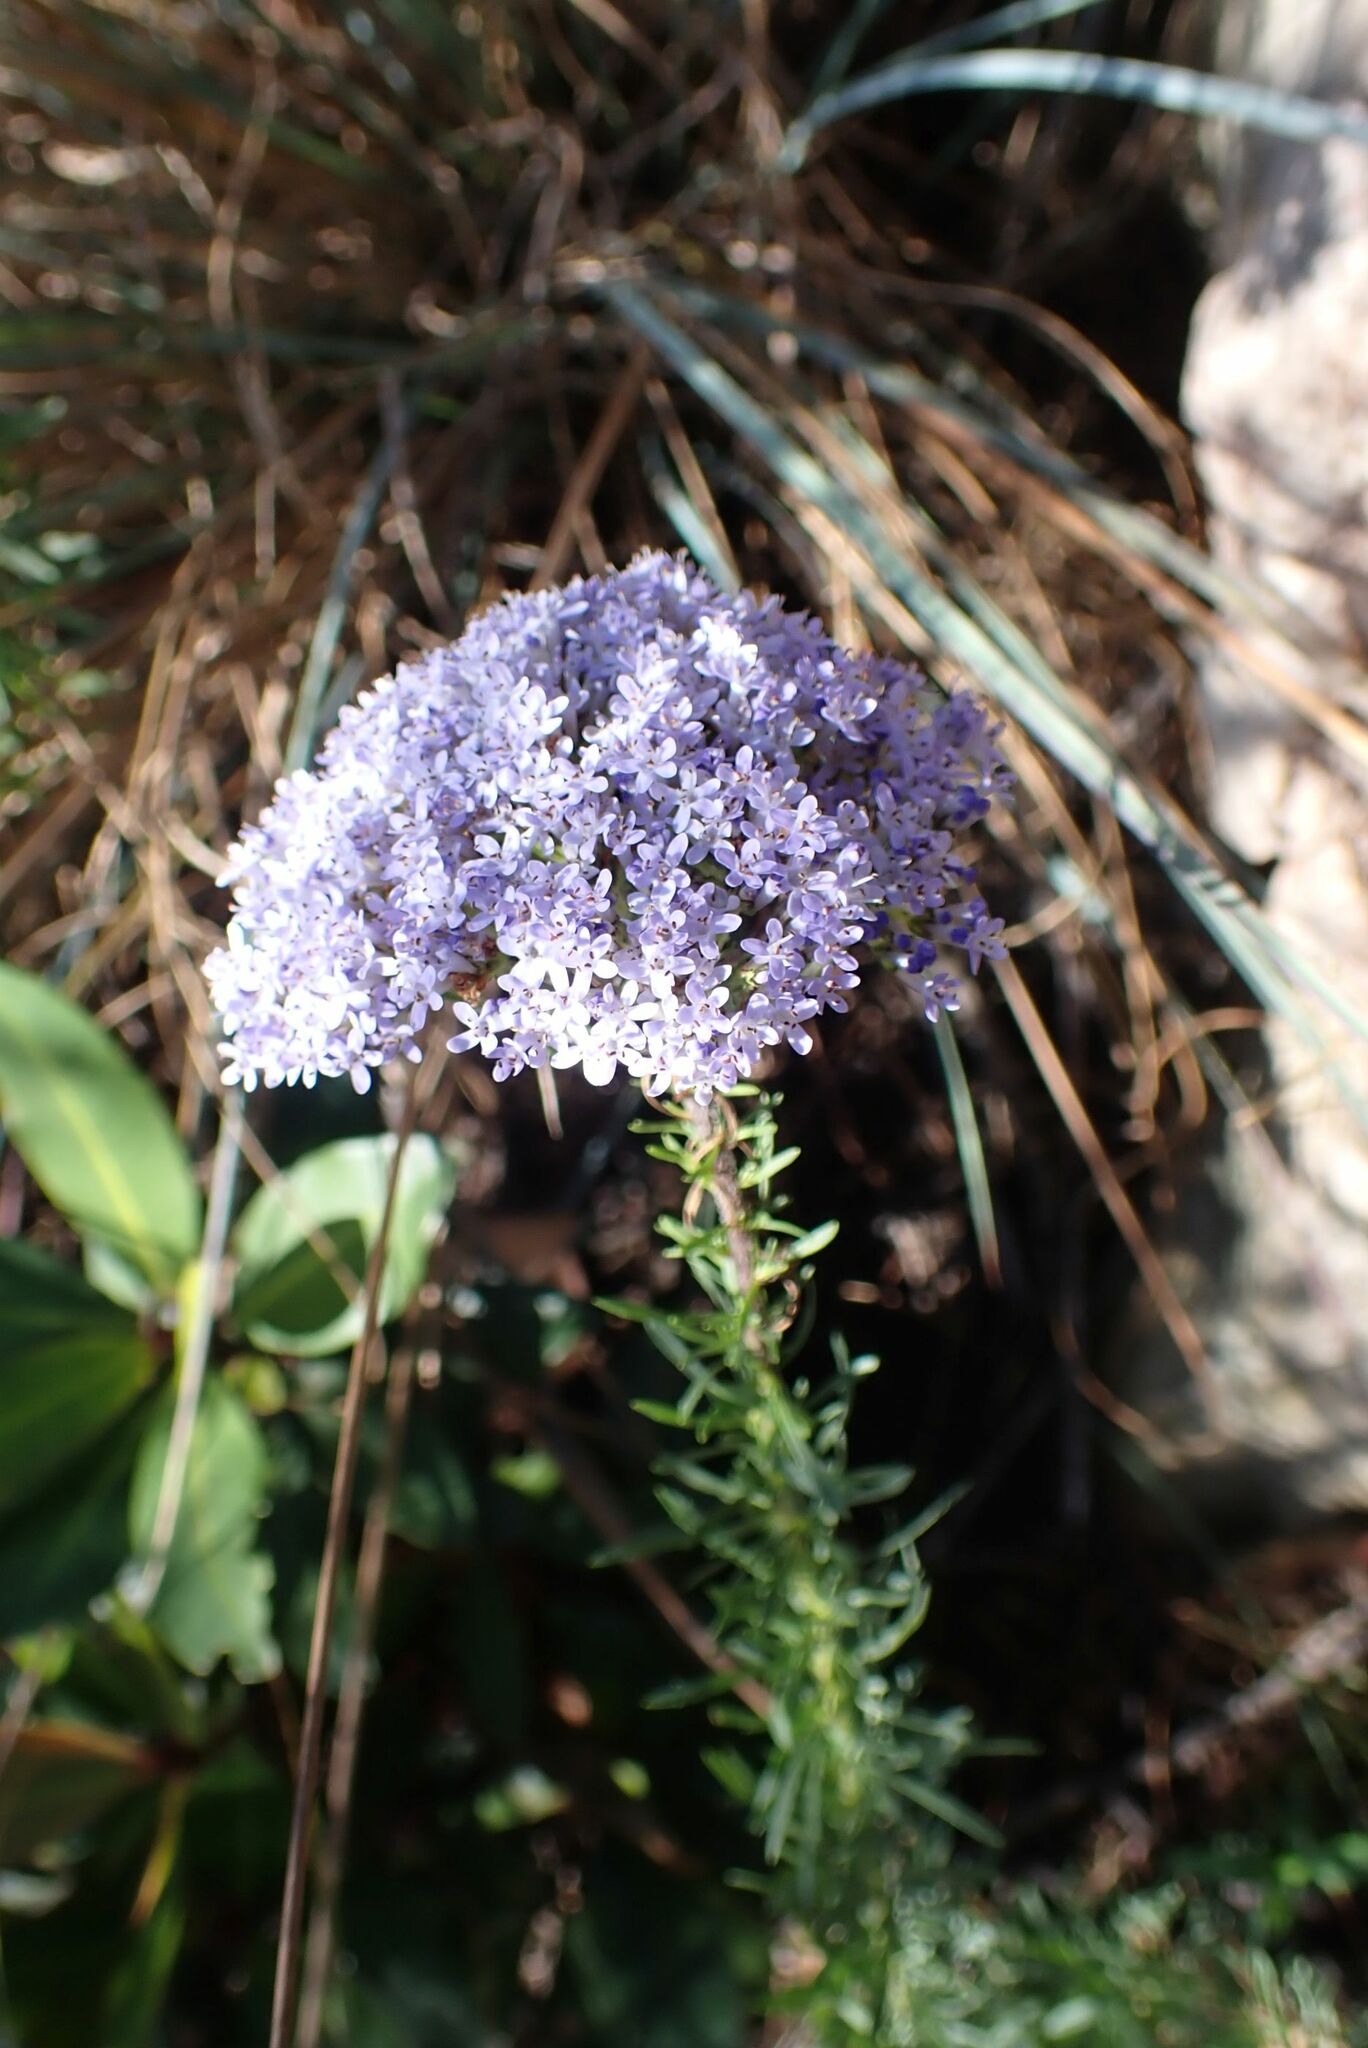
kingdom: Plantae
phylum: Tracheophyta
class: Magnoliopsida
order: Lamiales
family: Scrophulariaceae
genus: Tetraselago
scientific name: Tetraselago natalensis
